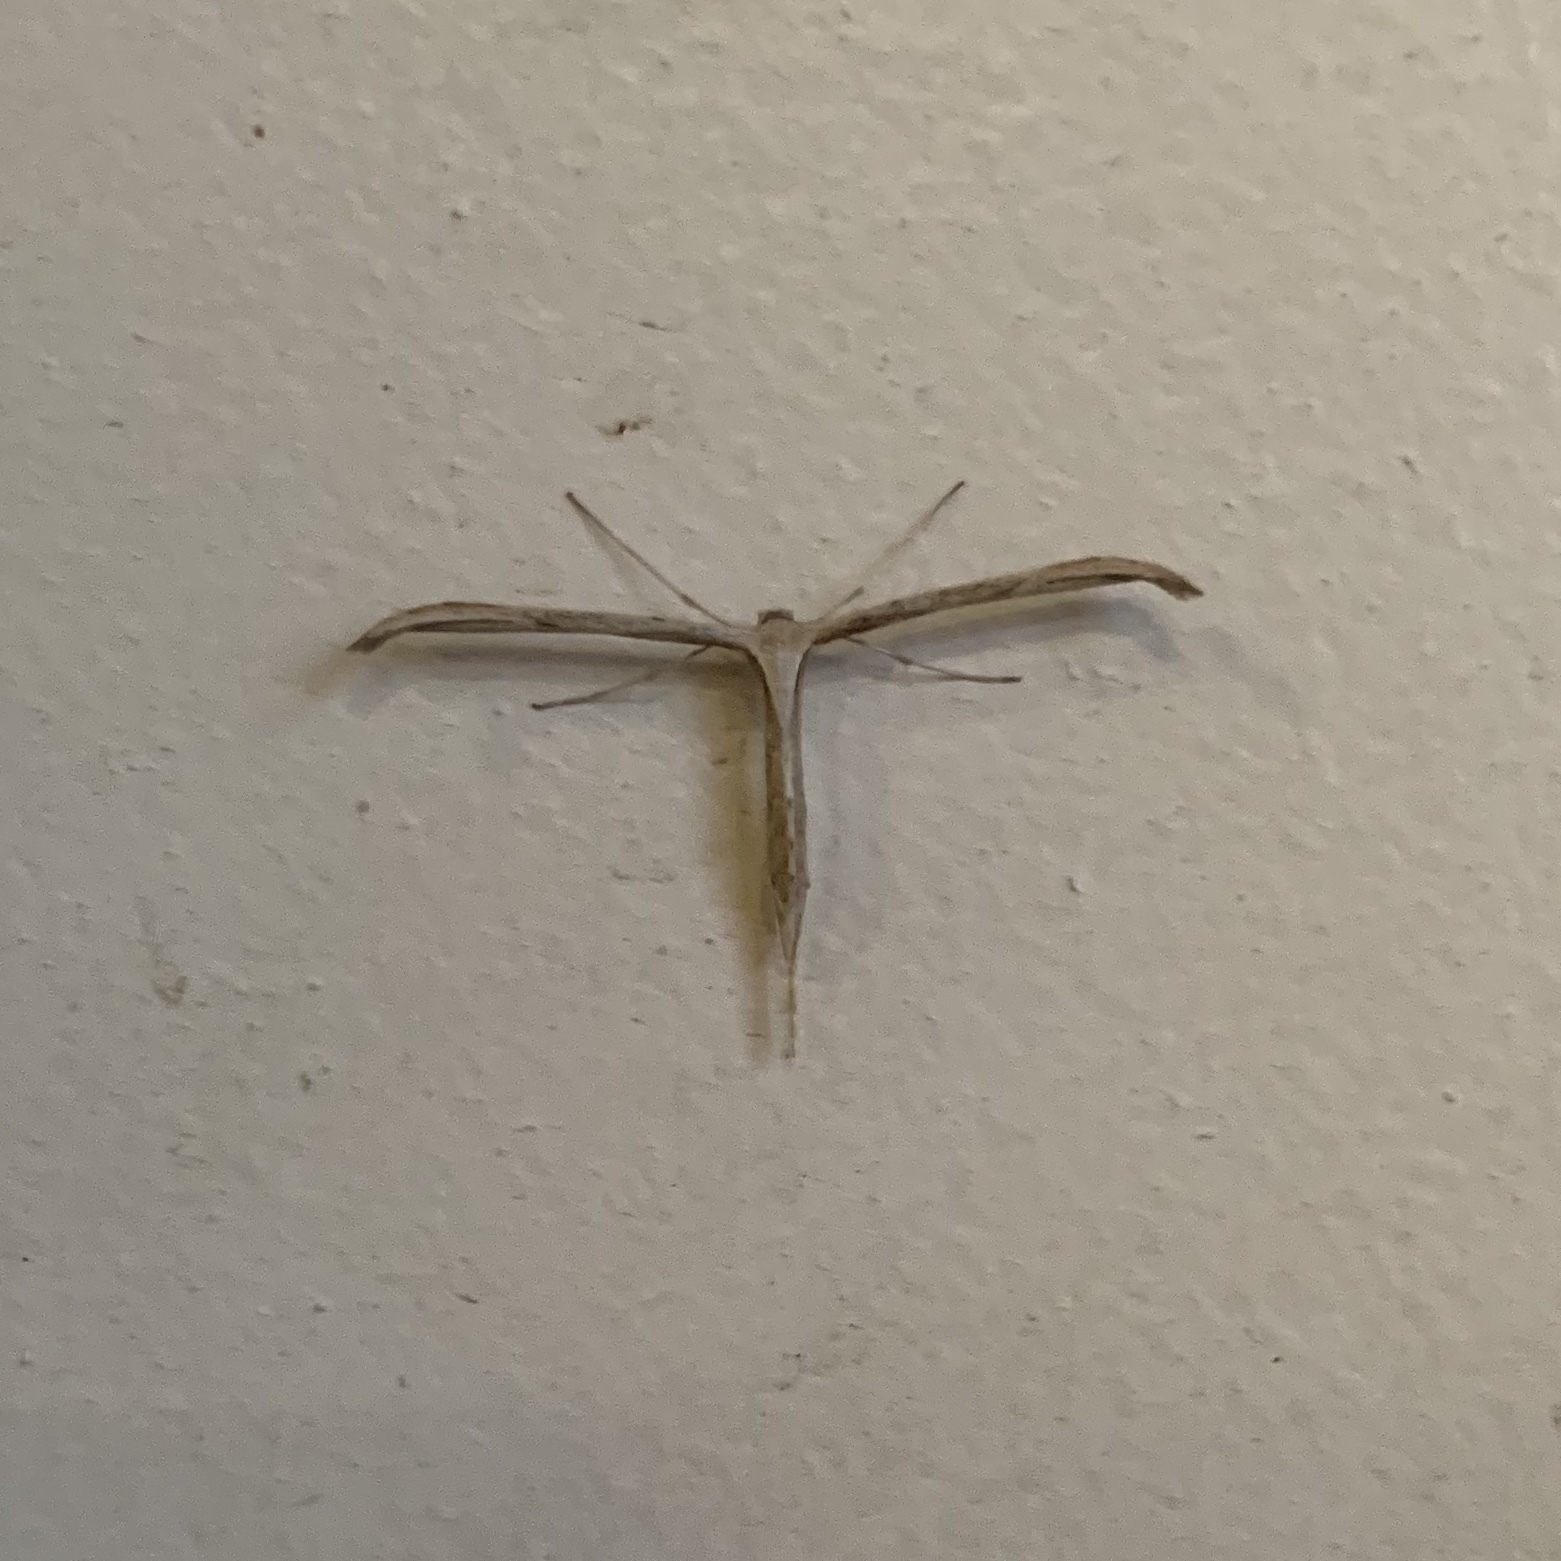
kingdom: Animalia
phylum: Arthropoda
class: Insecta
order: Lepidoptera
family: Pterophoridae
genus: Emmelina
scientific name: Emmelina monodactyla
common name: Common plume
